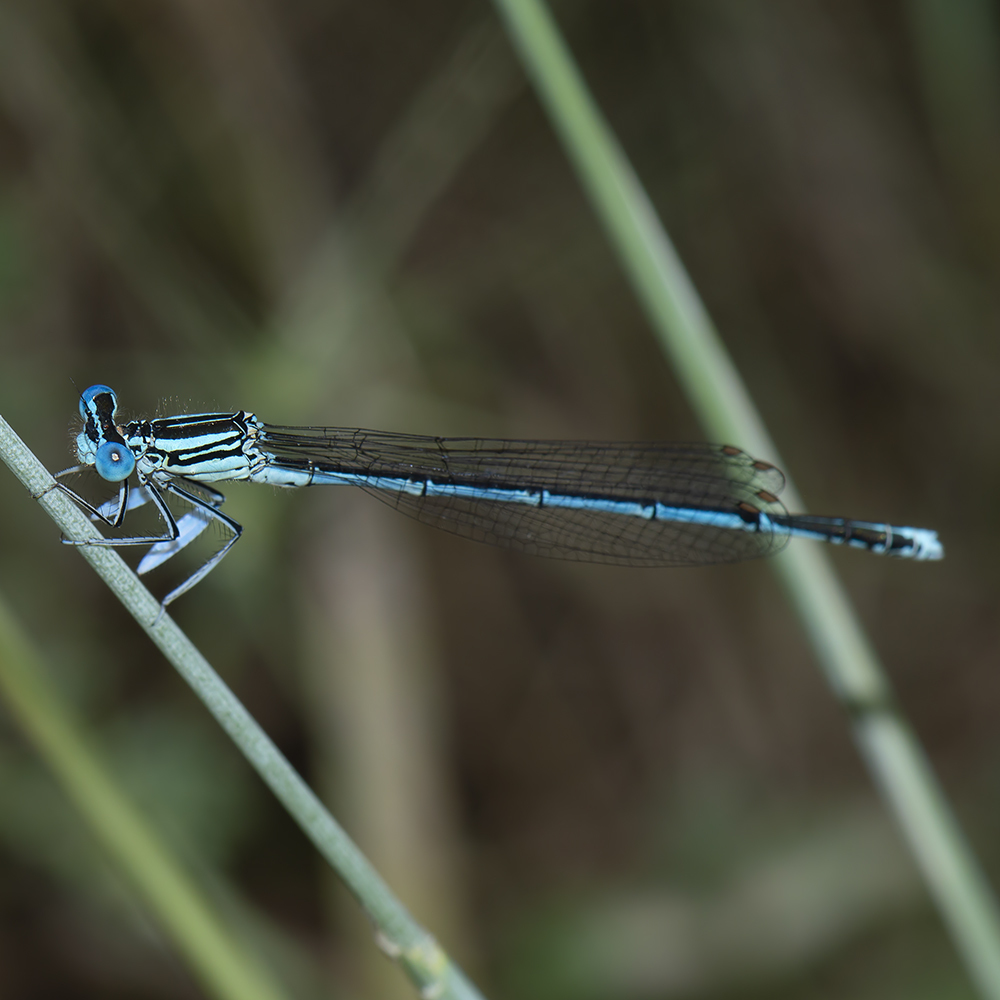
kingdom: Animalia
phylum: Arthropoda
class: Insecta
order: Odonata
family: Platycnemididae
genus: Platycnemis
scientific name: Platycnemis pennipes
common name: White-legged damselfly
